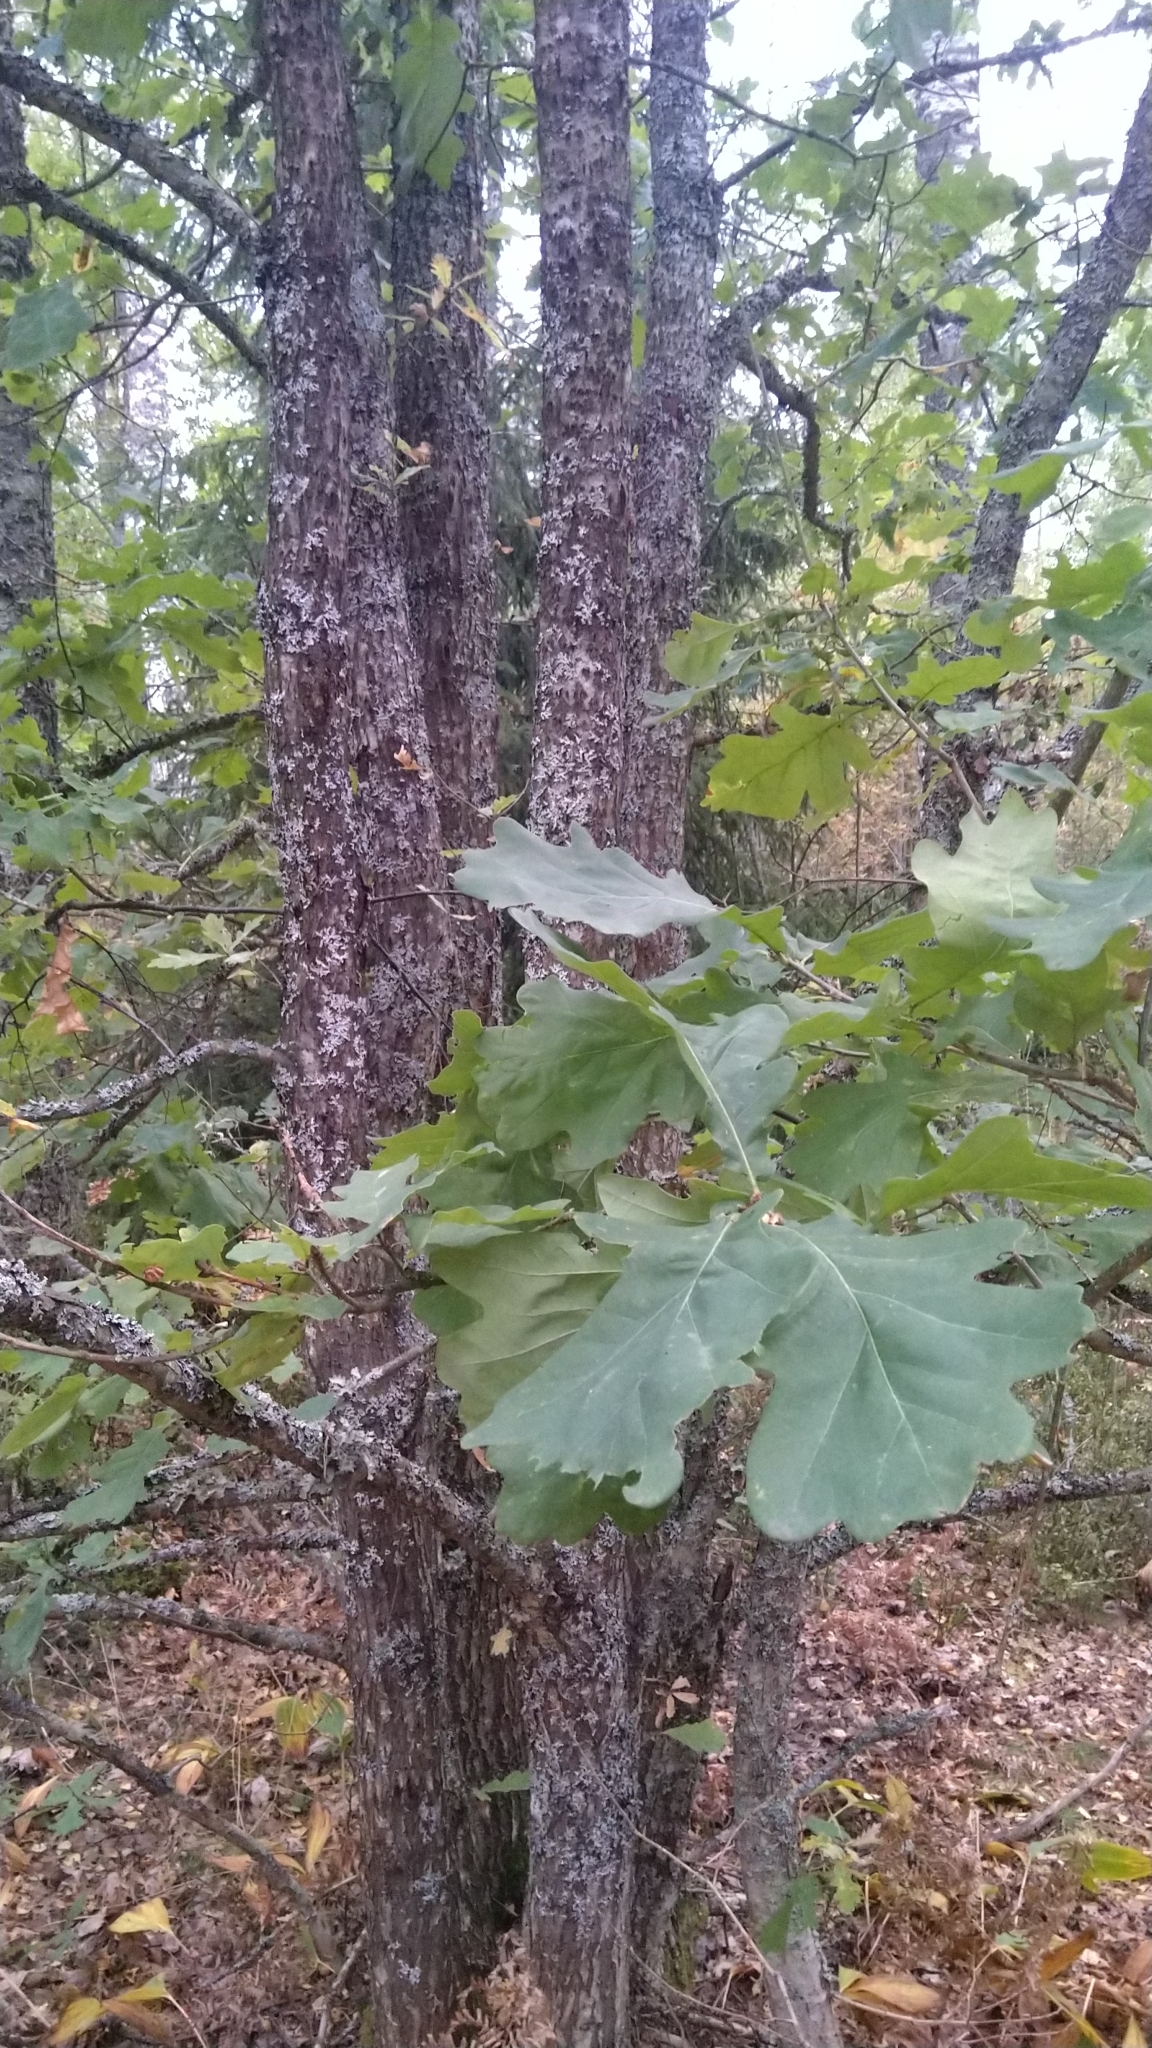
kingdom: Plantae
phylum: Tracheophyta
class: Magnoliopsida
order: Fagales
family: Fagaceae
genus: Quercus
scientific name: Quercus robur
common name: Pedunculate oak
